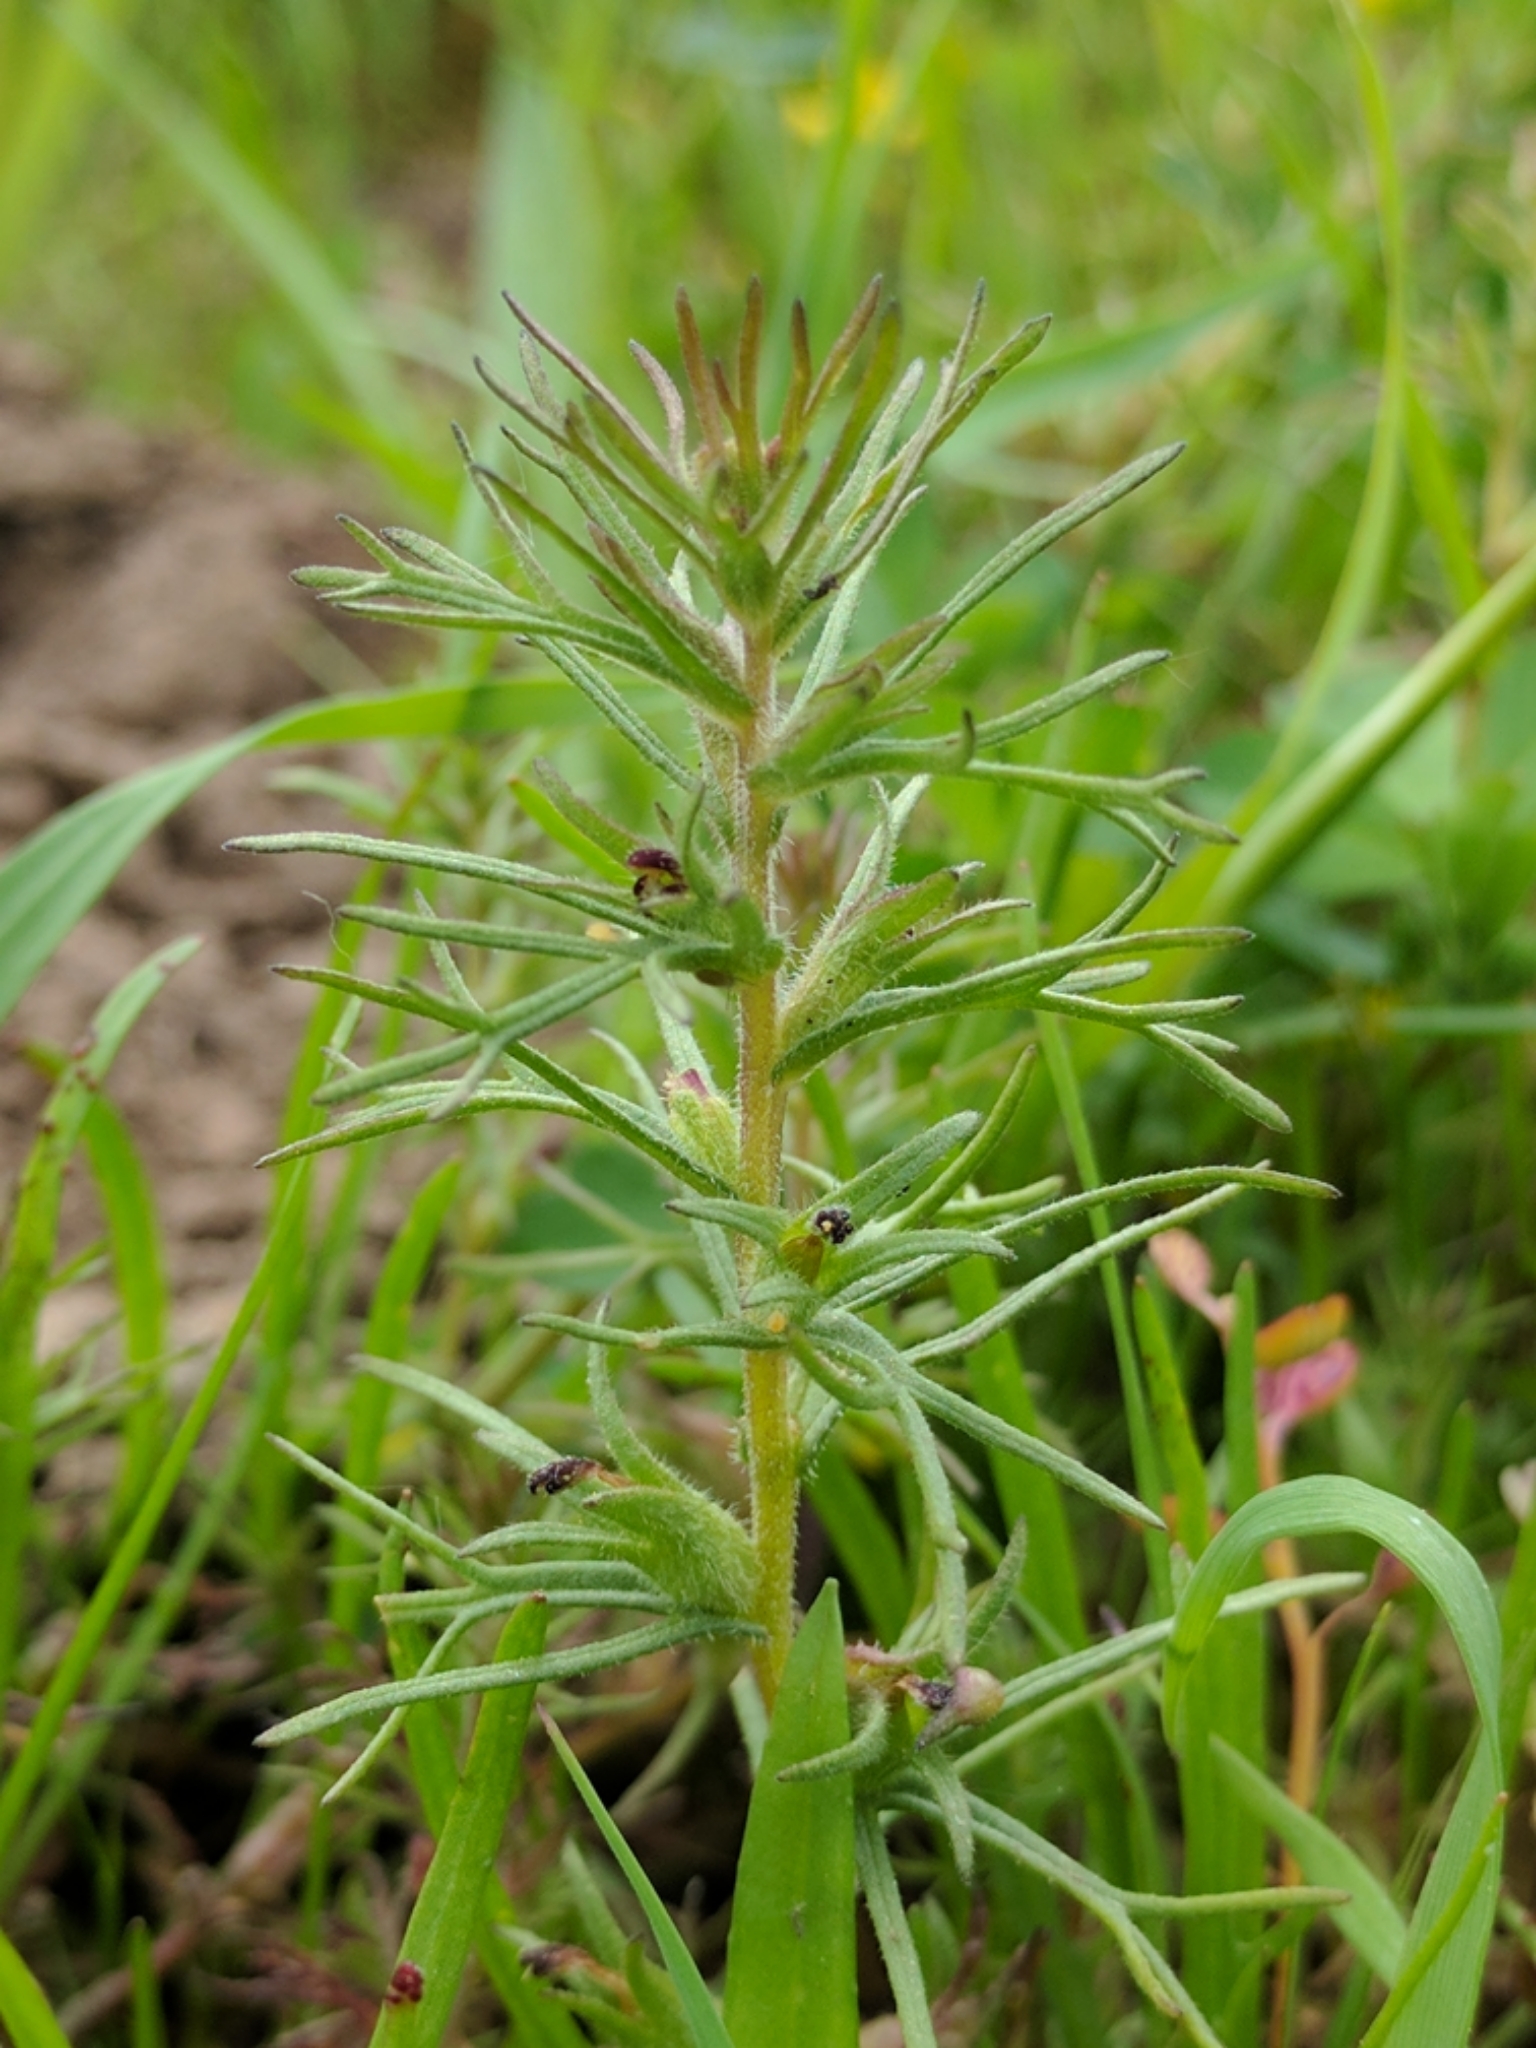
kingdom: Plantae
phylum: Tracheophyta
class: Magnoliopsida
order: Lamiales
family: Orobanchaceae
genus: Triphysaria
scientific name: Triphysaria pusilla
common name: Dwarf false owl-clover
